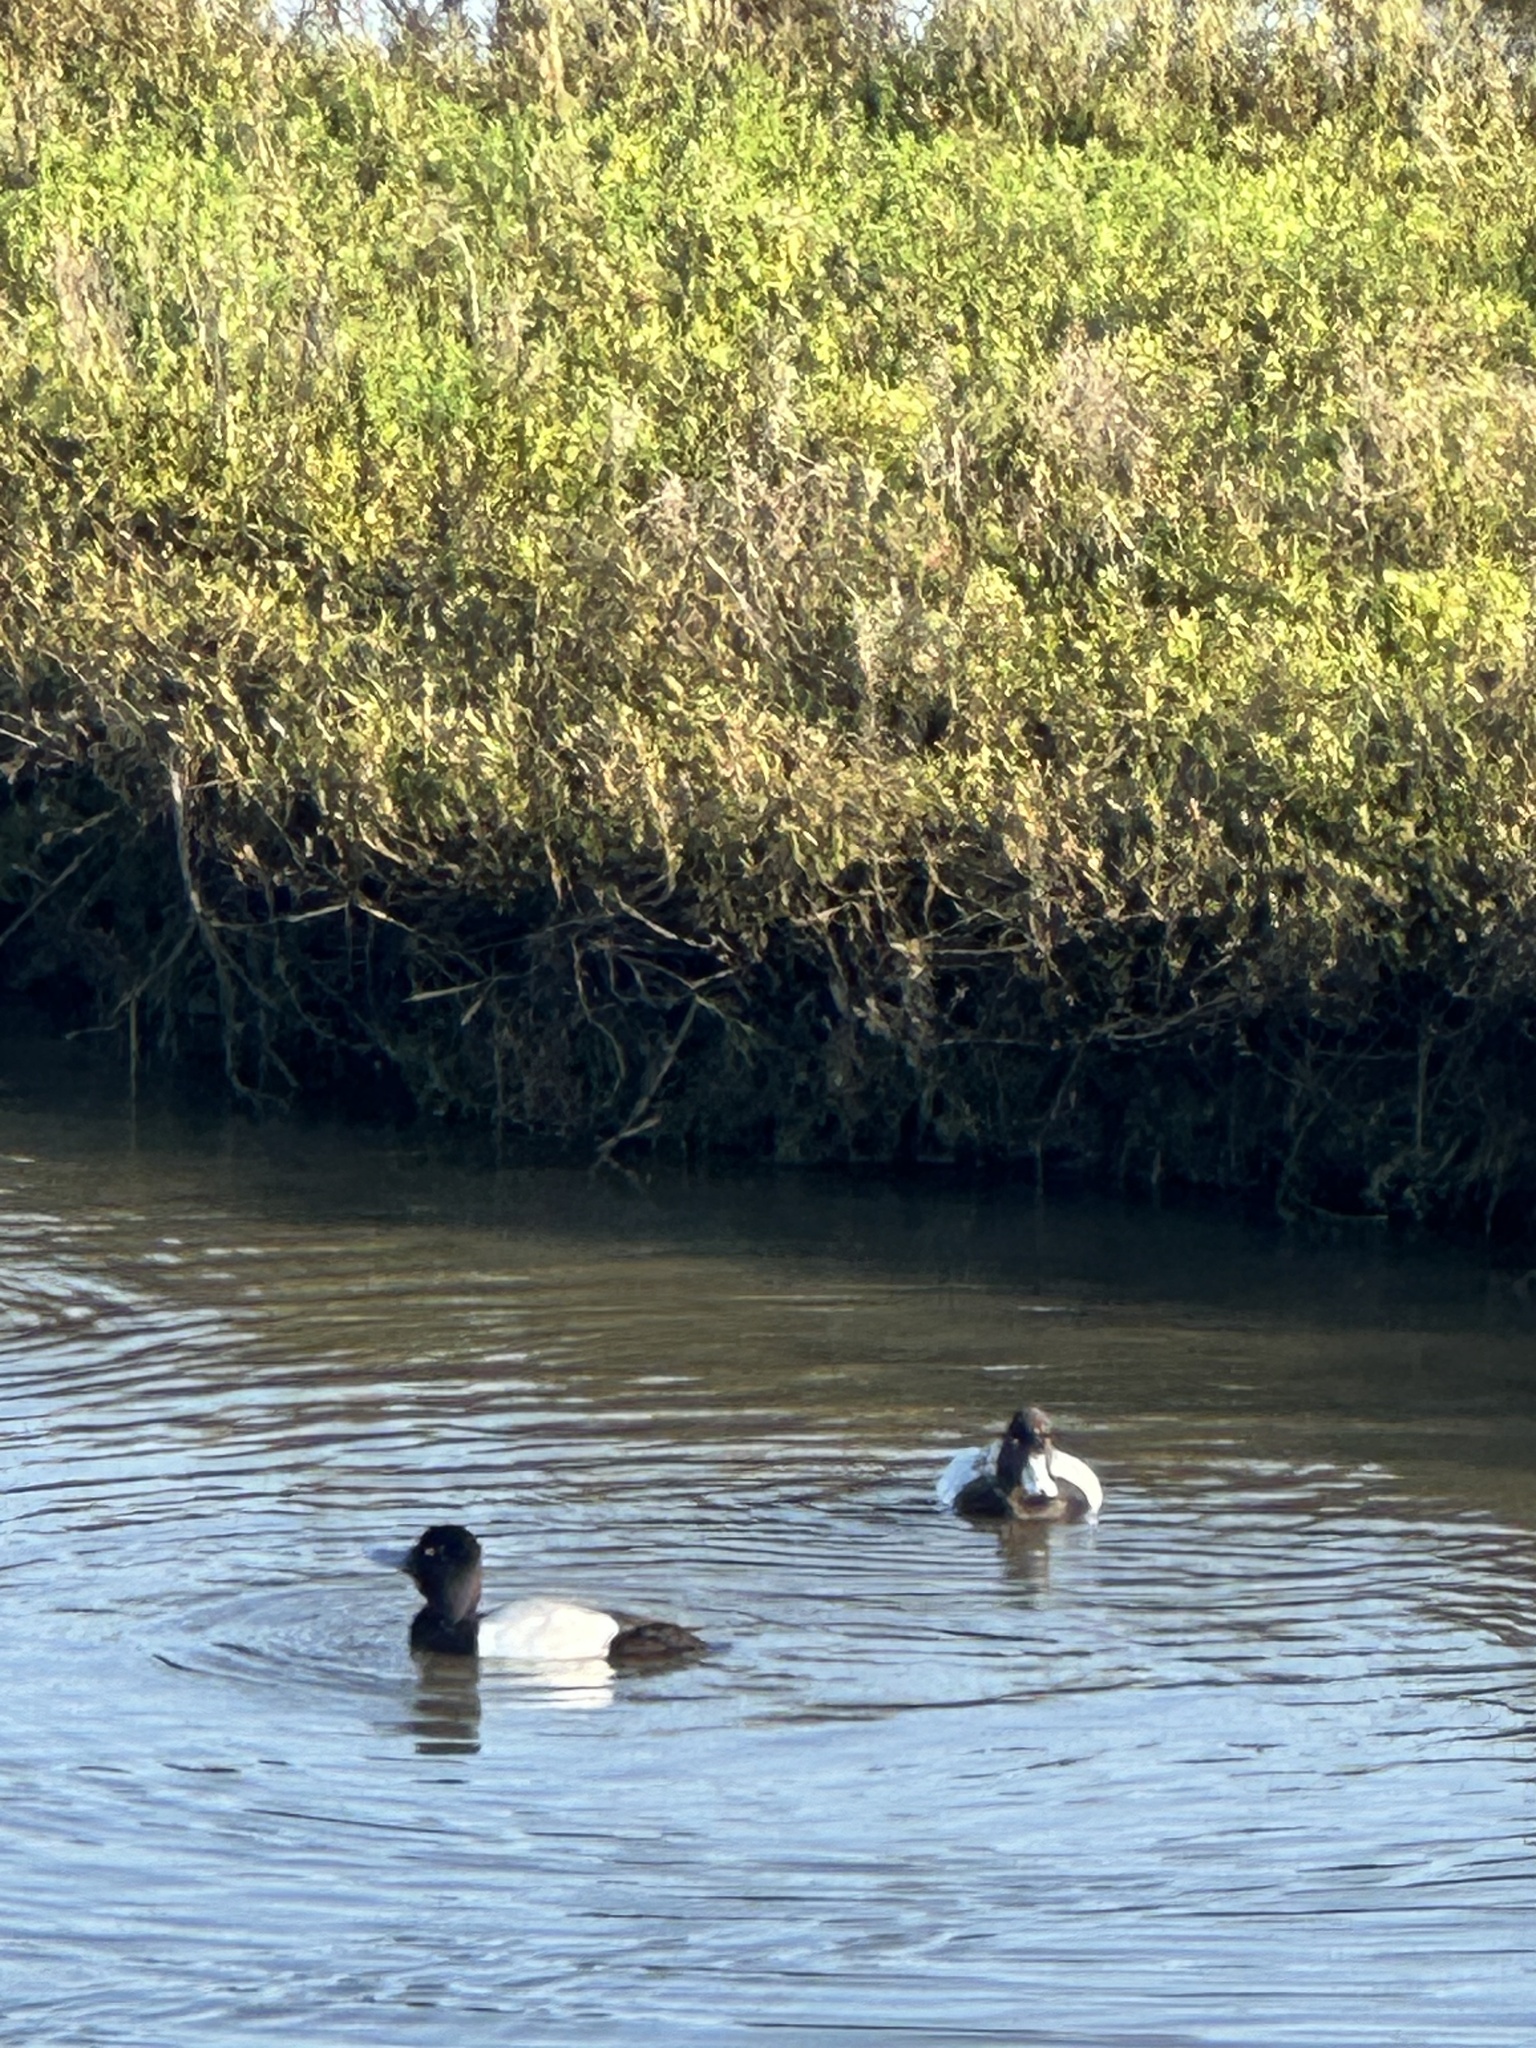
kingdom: Animalia
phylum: Chordata
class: Aves
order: Anseriformes
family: Anatidae
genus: Aythya
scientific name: Aythya affinis
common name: Lesser scaup
